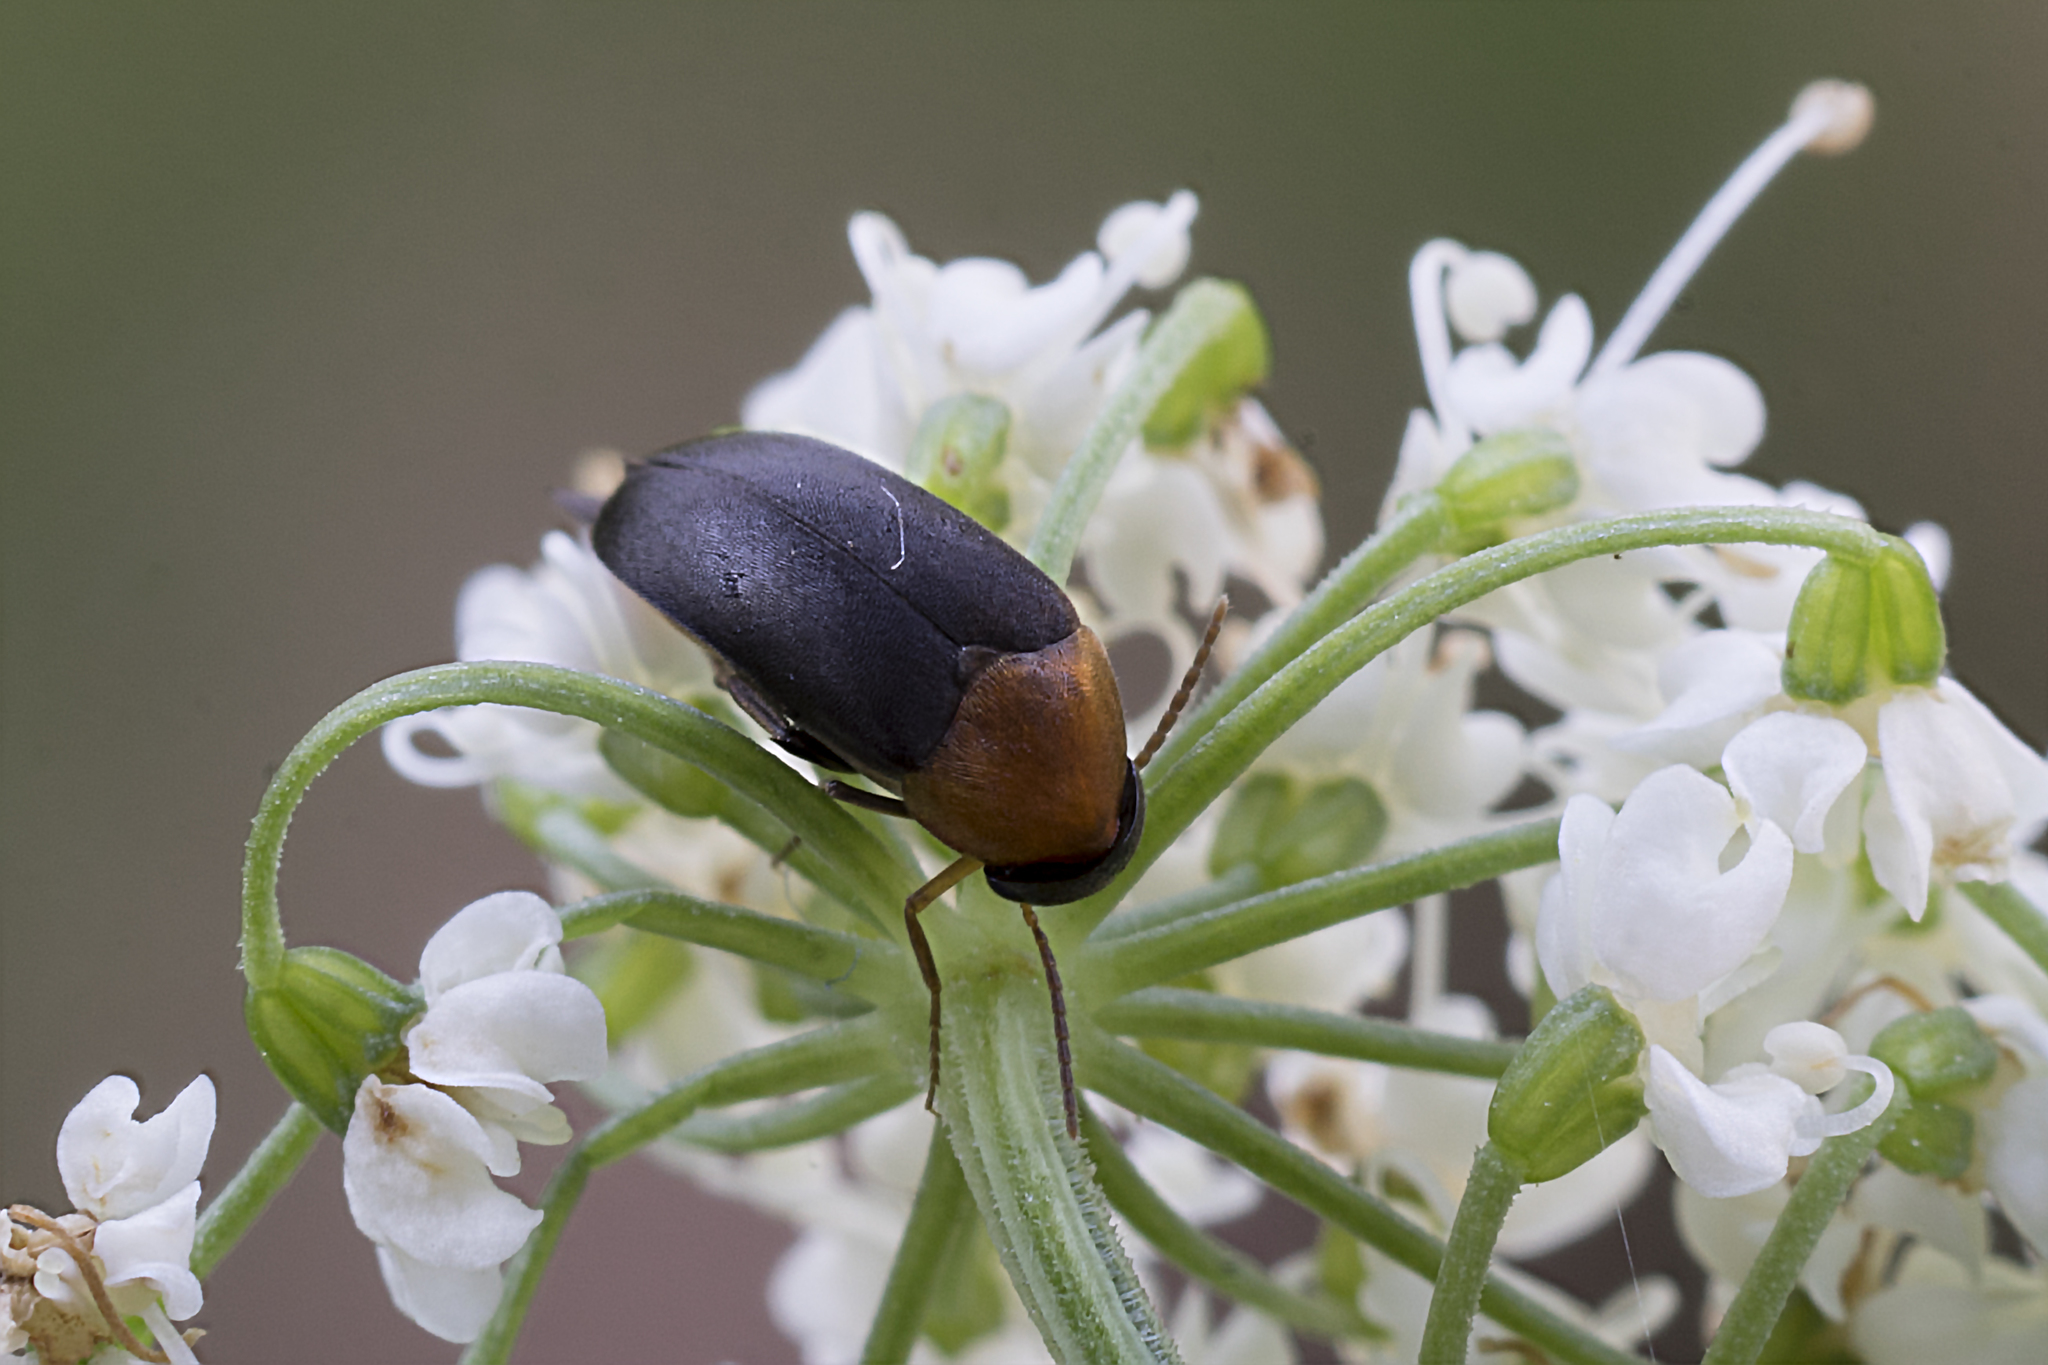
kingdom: Animalia
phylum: Arthropoda
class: Insecta
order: Coleoptera
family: Mordellidae
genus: Mordellochroa
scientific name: Mordellochroa abdominalis
